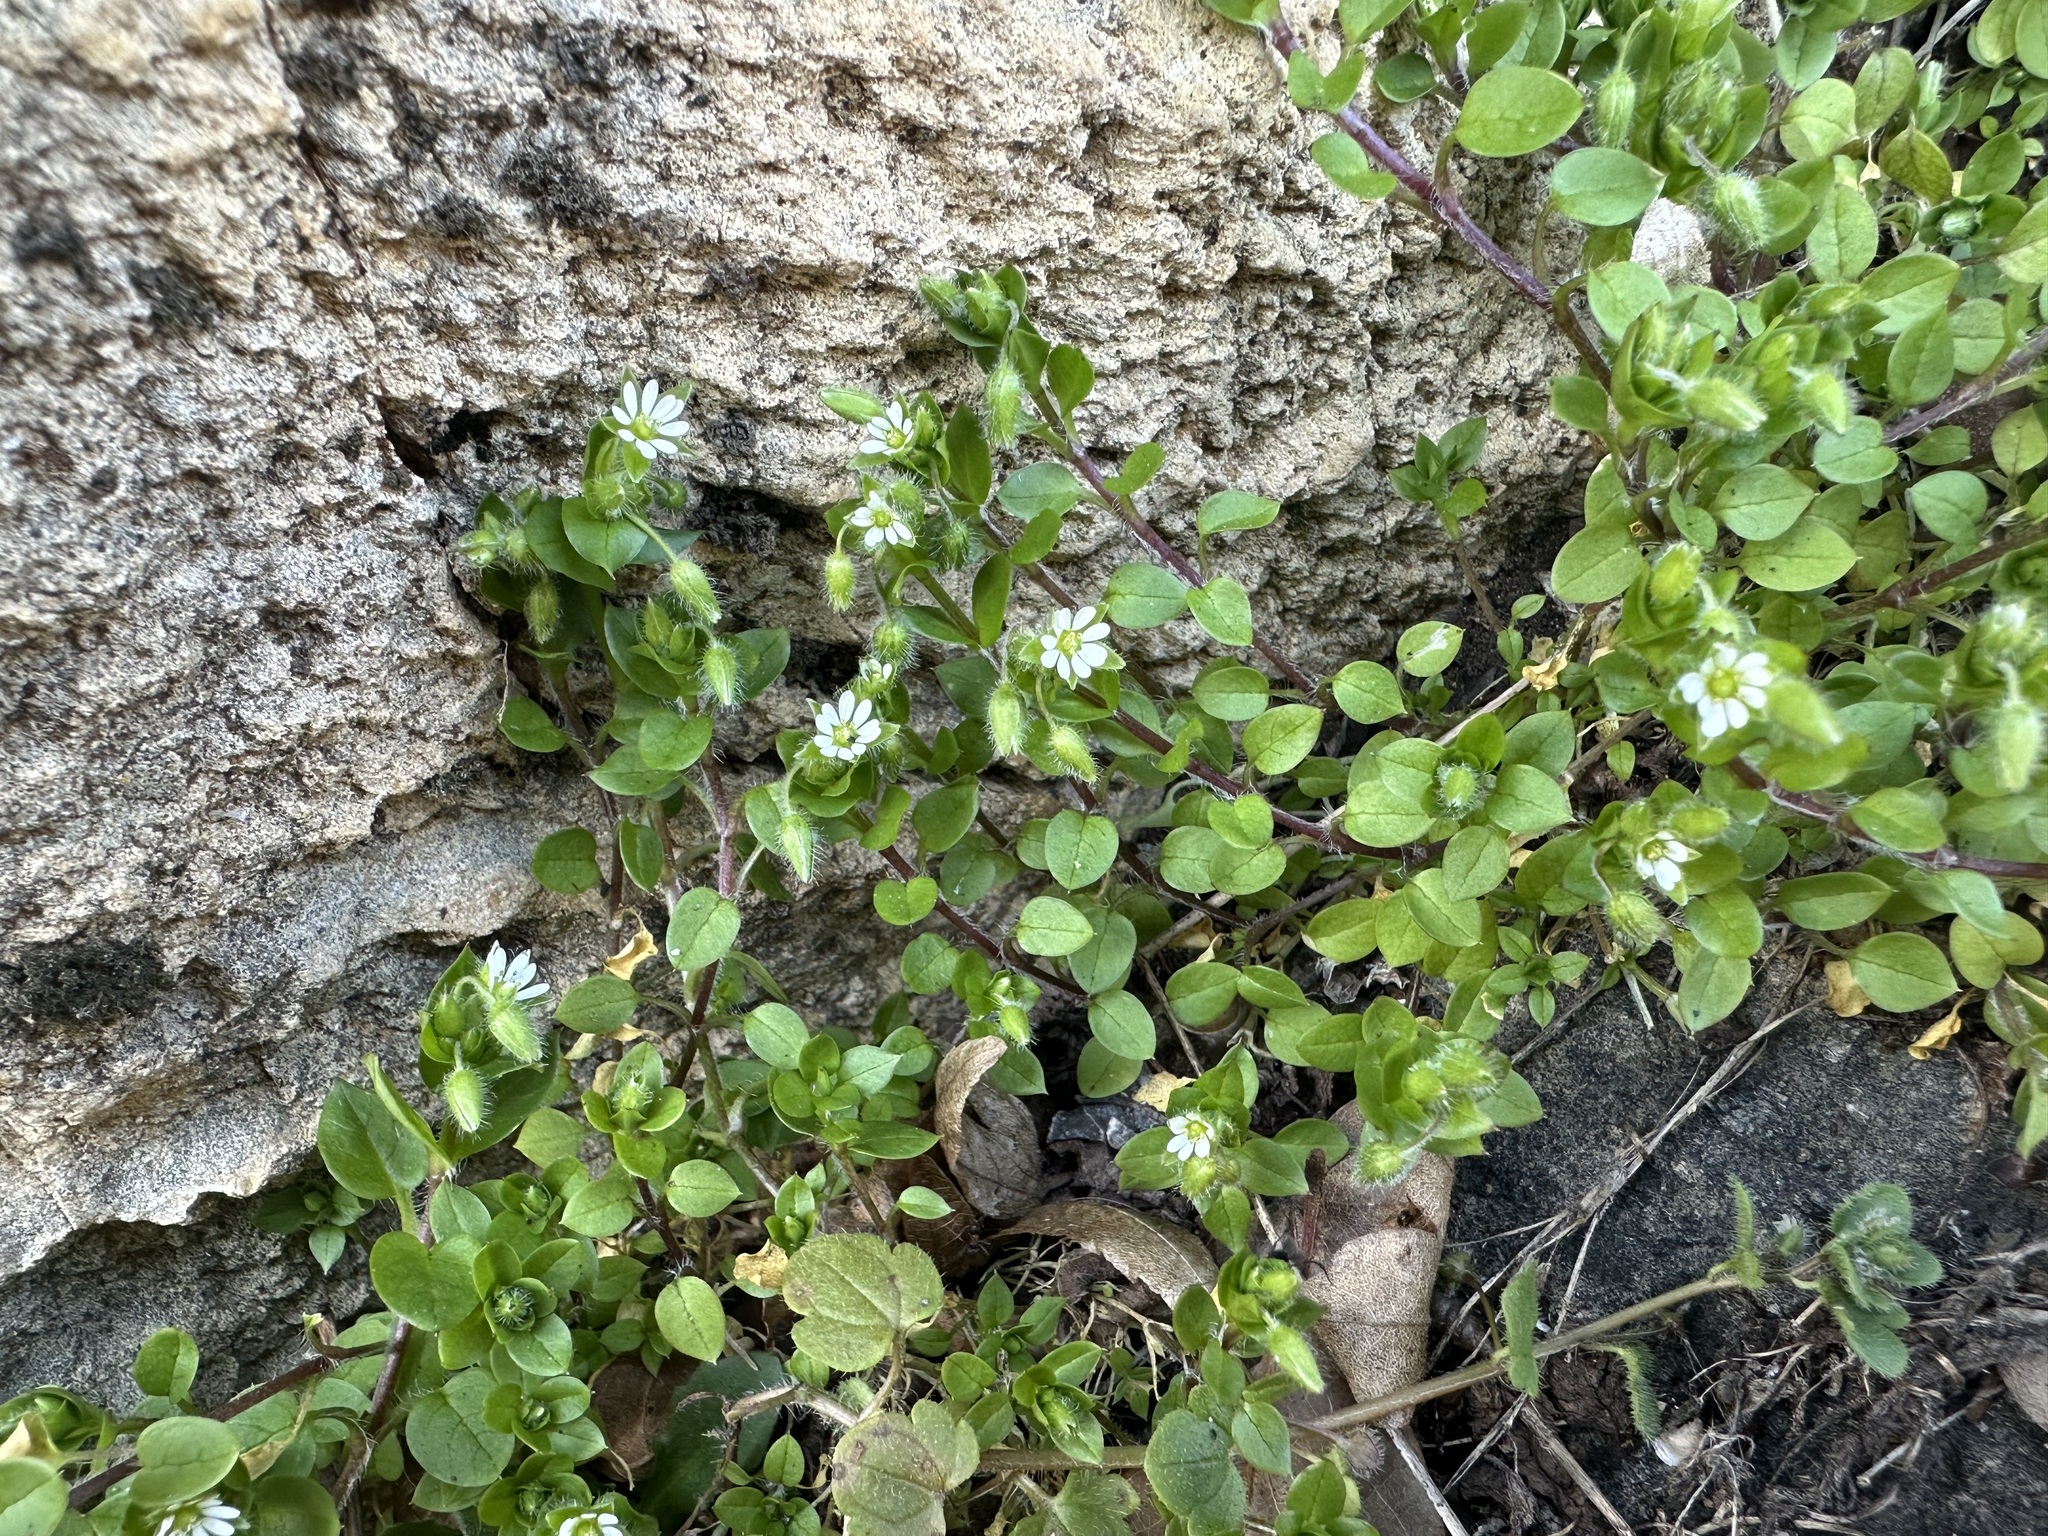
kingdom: Plantae
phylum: Tracheophyta
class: Magnoliopsida
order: Caryophyllales
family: Caryophyllaceae
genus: Stellaria
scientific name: Stellaria media
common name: Common chickweed
